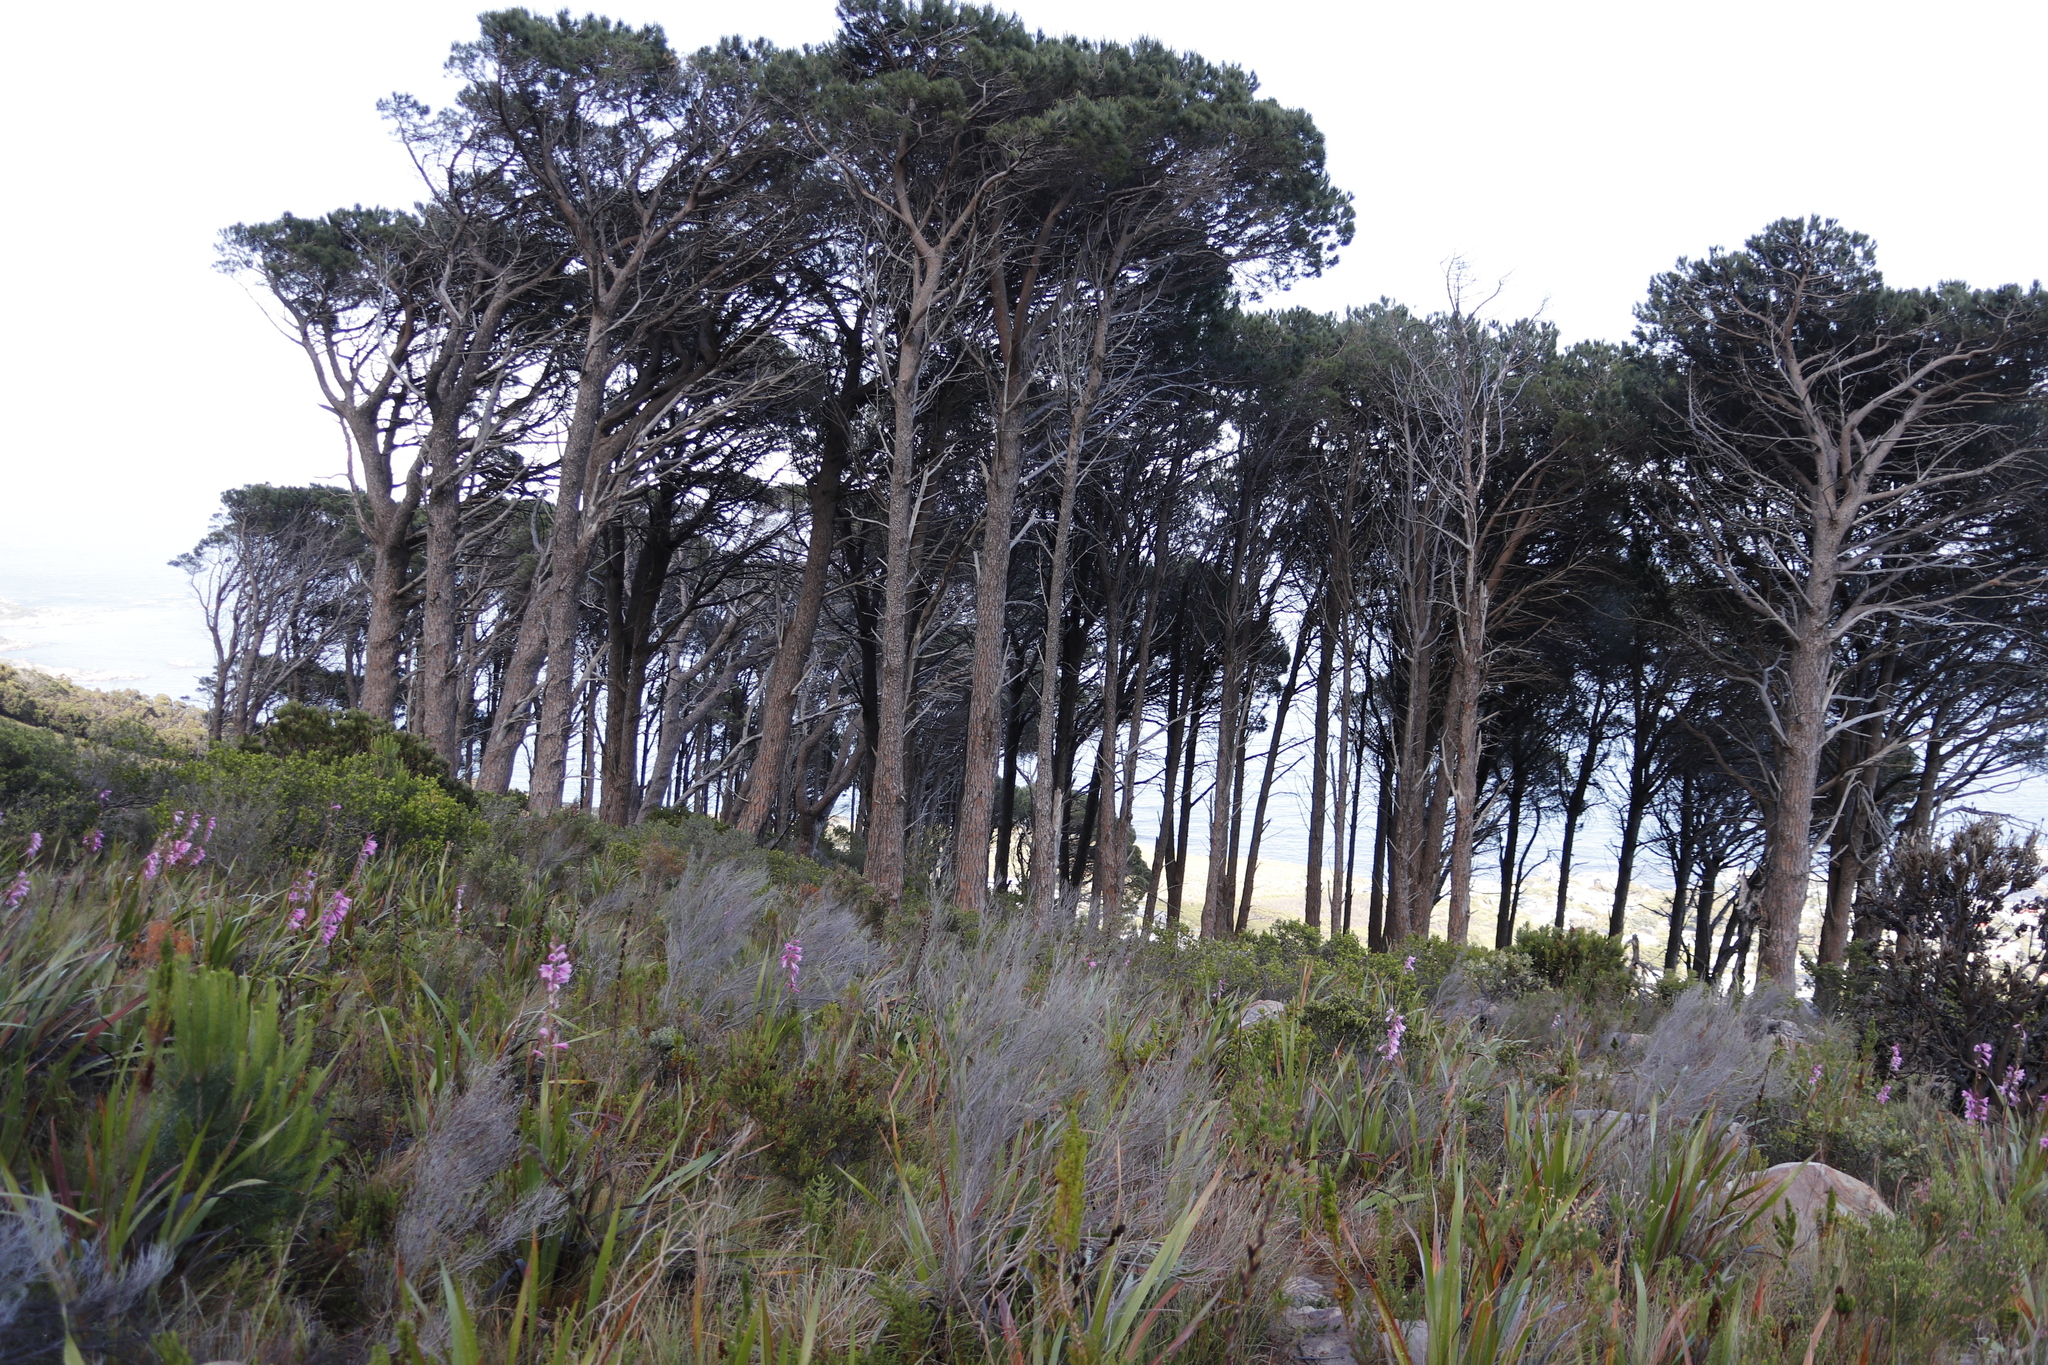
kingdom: Plantae
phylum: Tracheophyta
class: Pinopsida
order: Pinales
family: Pinaceae
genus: Pinus
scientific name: Pinus pinea
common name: Italian stone pine
